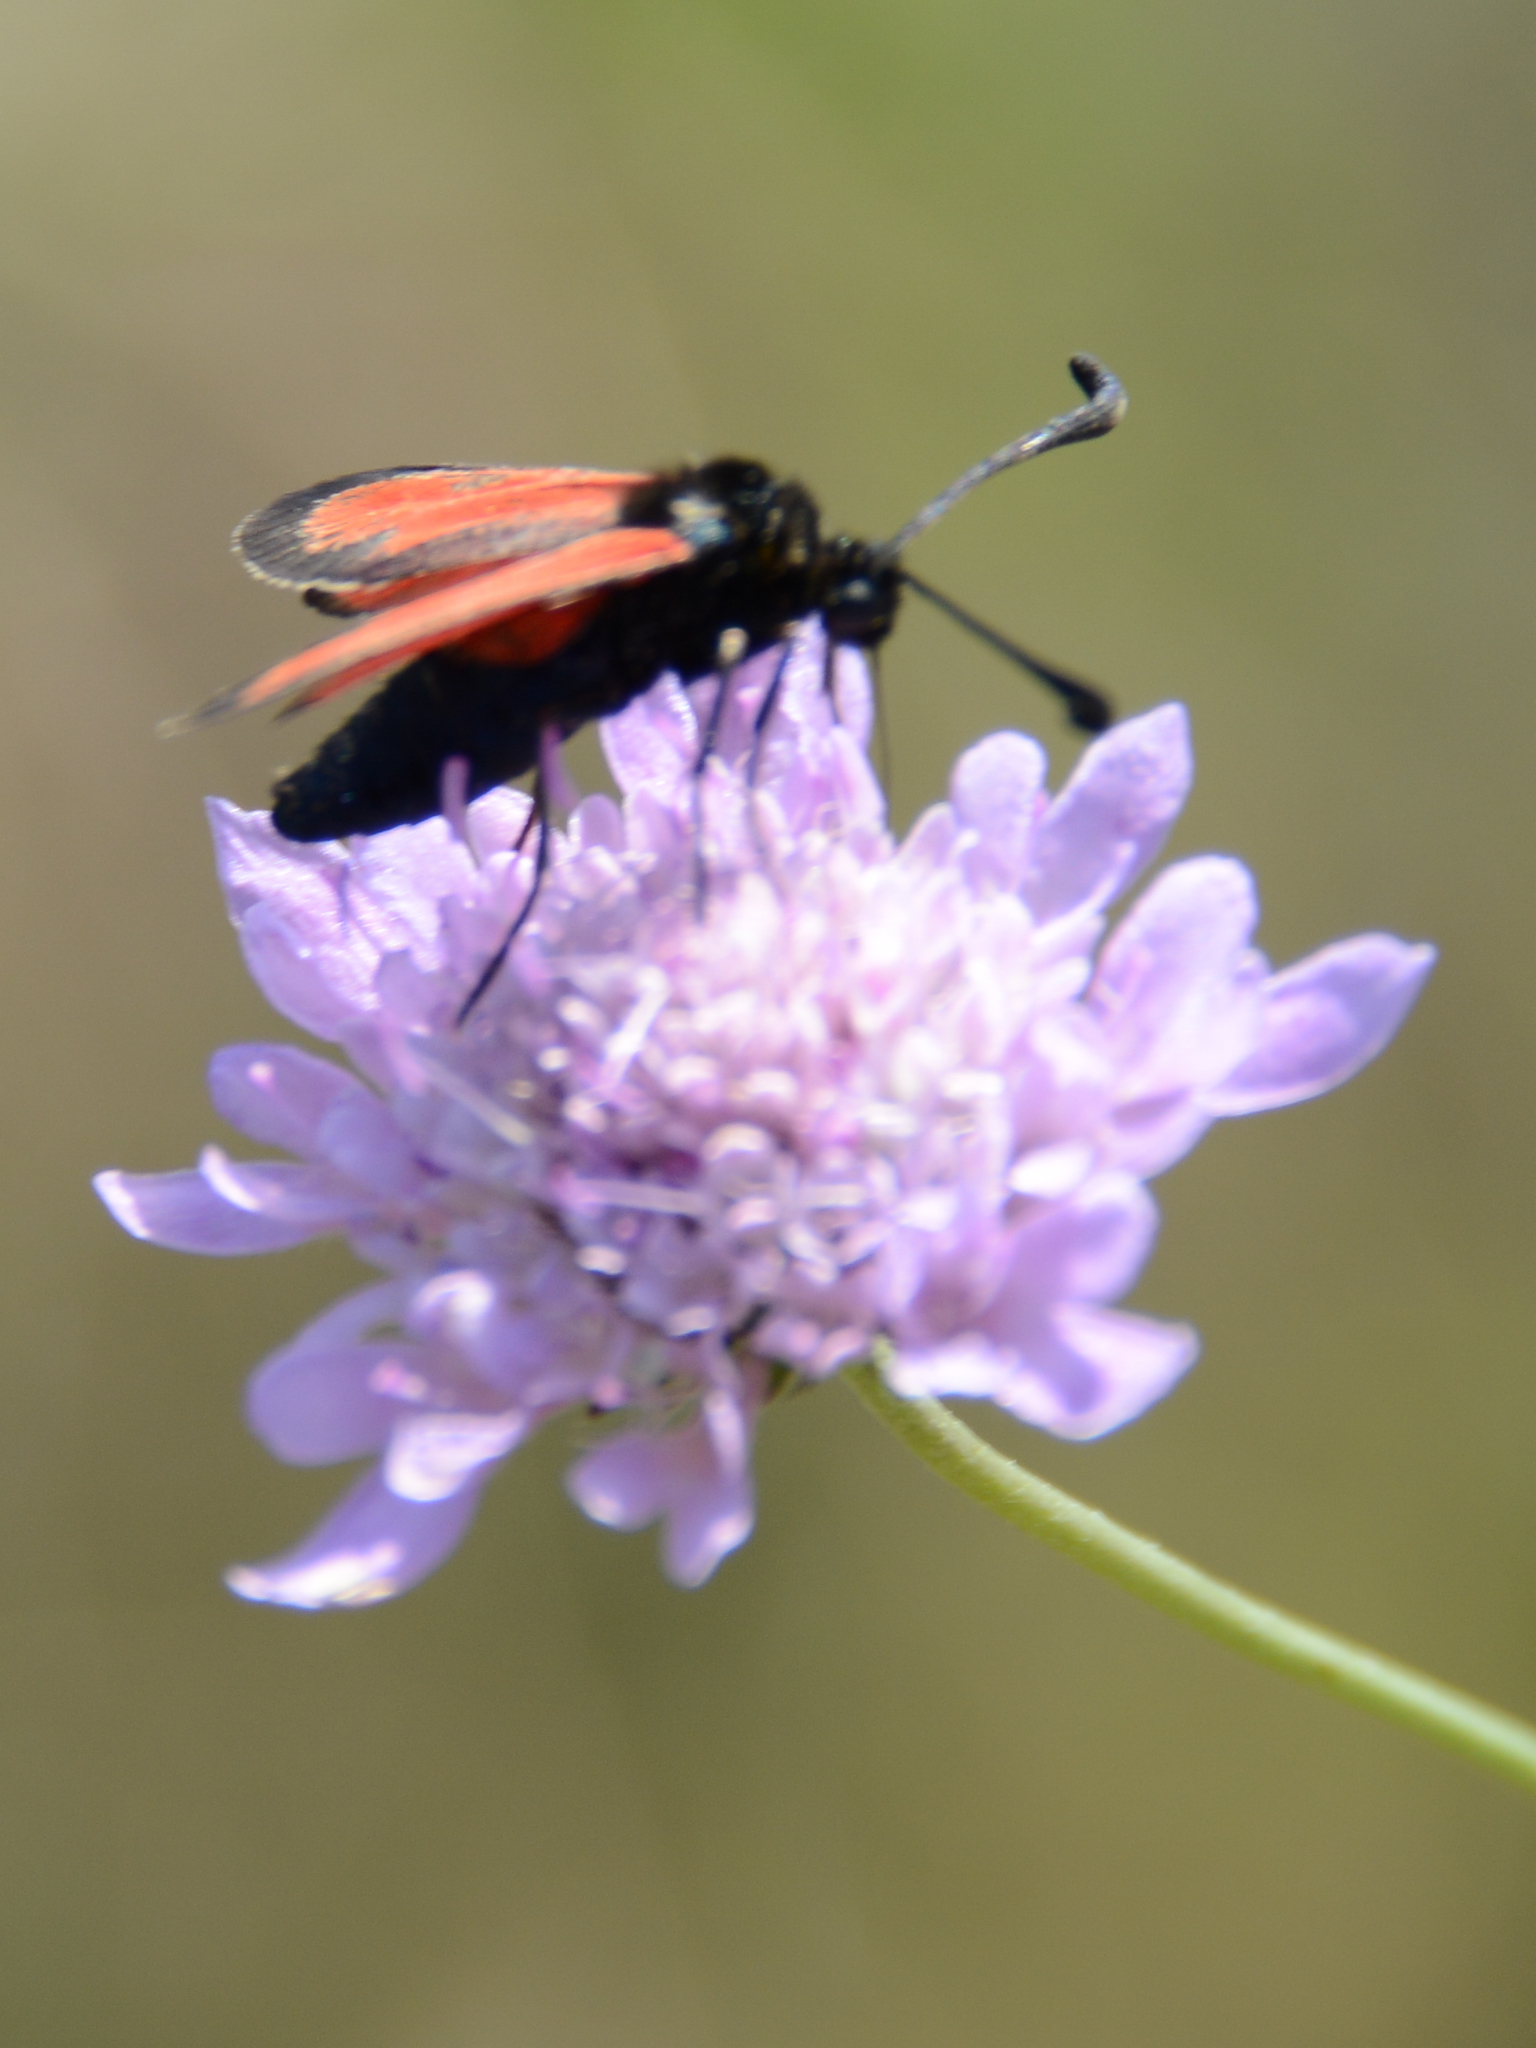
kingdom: Animalia
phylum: Arthropoda
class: Insecta
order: Lepidoptera
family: Zygaenidae
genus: Zygaena
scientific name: Zygaena punctum
